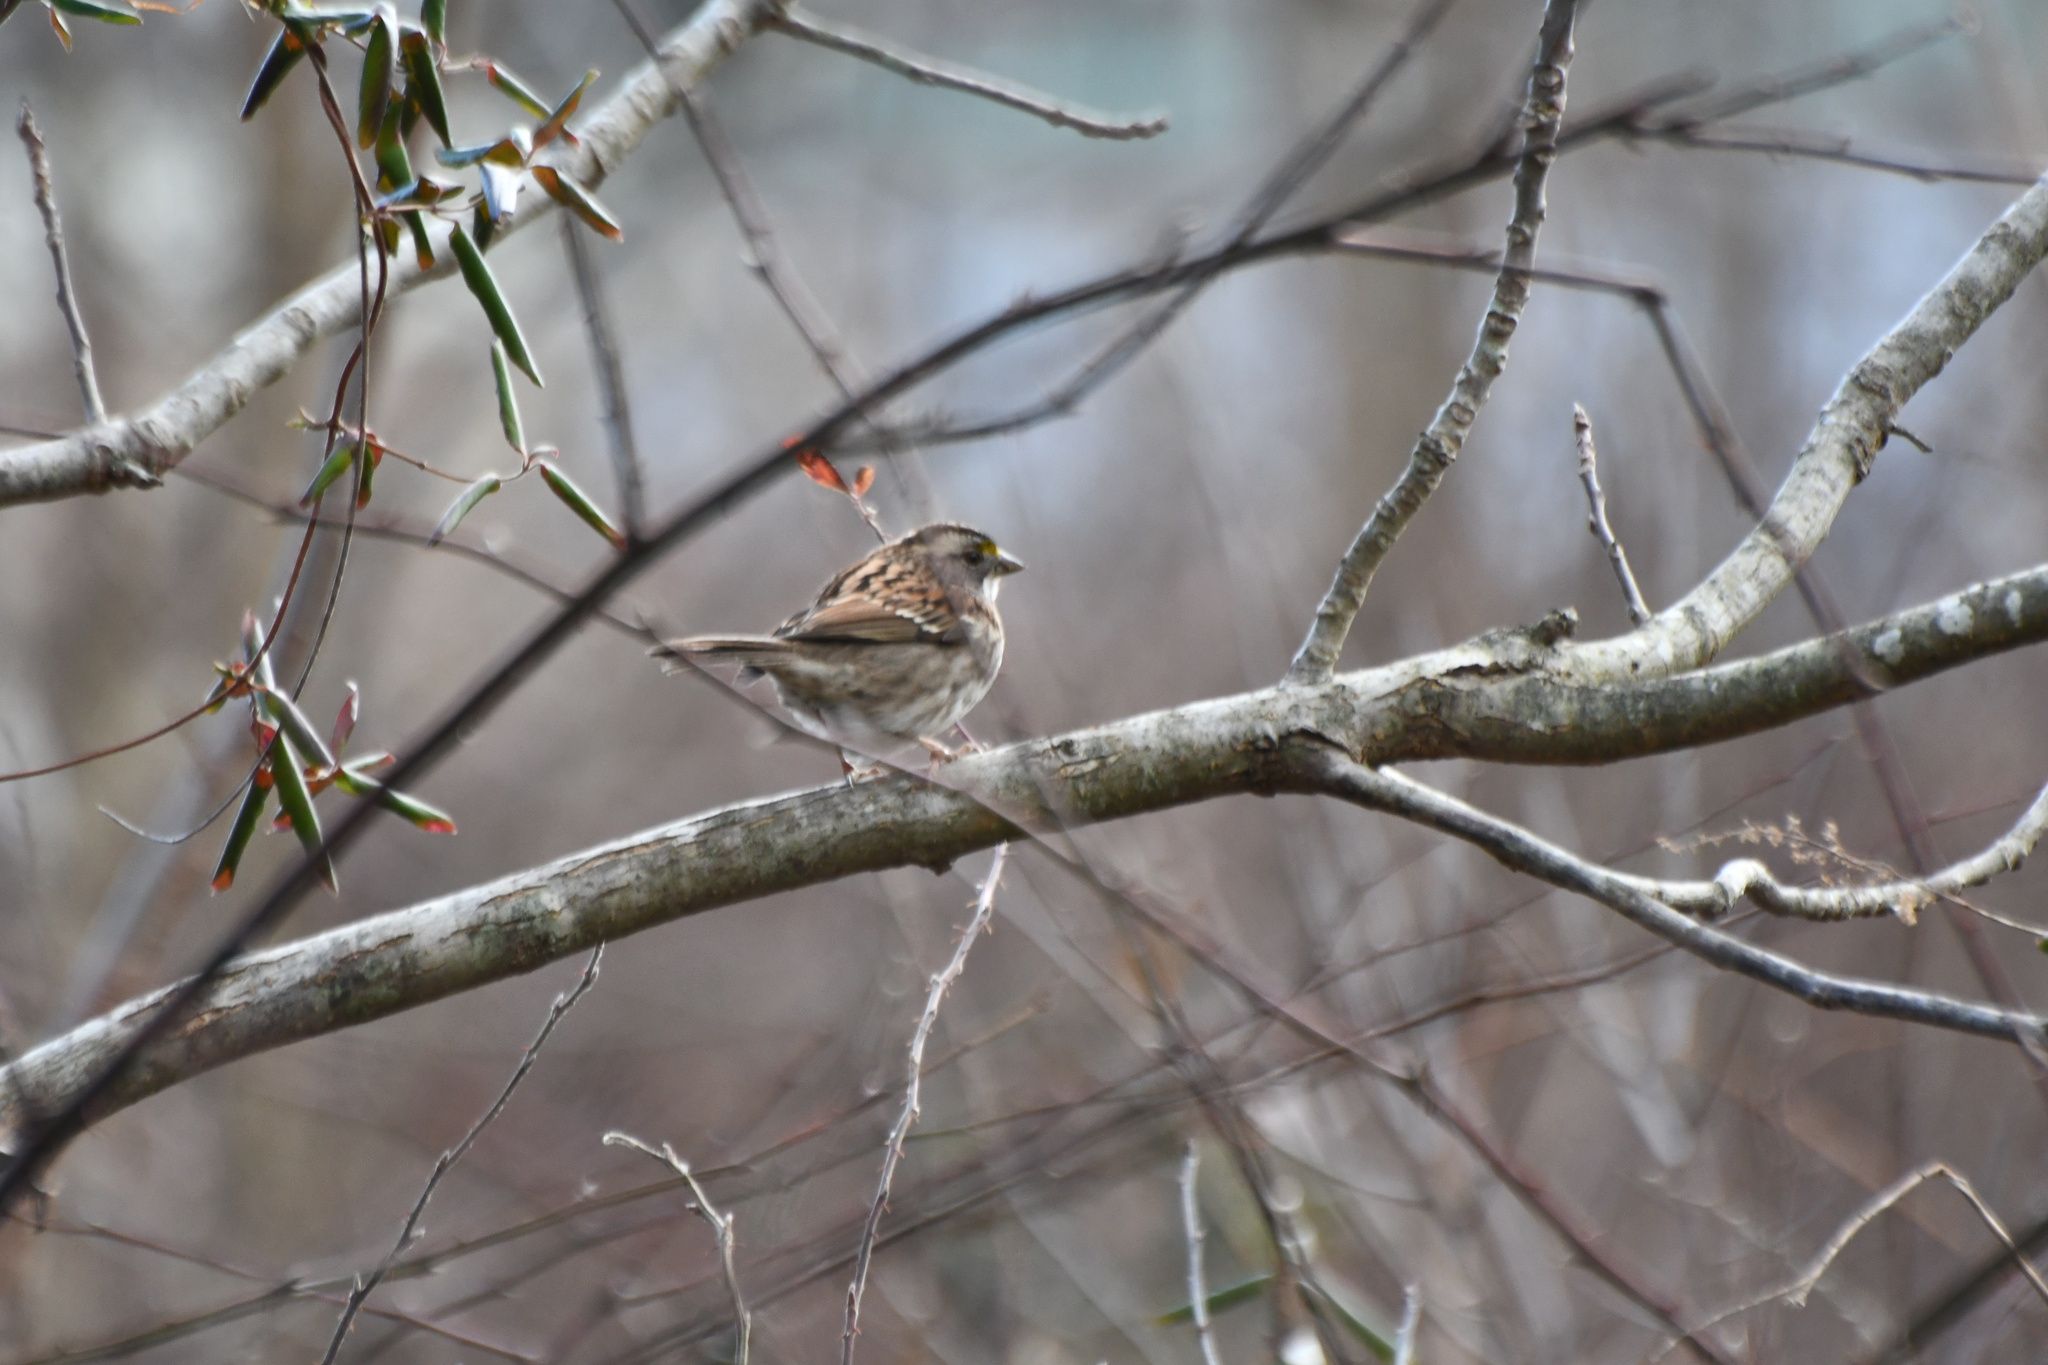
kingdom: Animalia
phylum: Chordata
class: Aves
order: Passeriformes
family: Passerellidae
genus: Zonotrichia
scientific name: Zonotrichia albicollis
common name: White-throated sparrow
